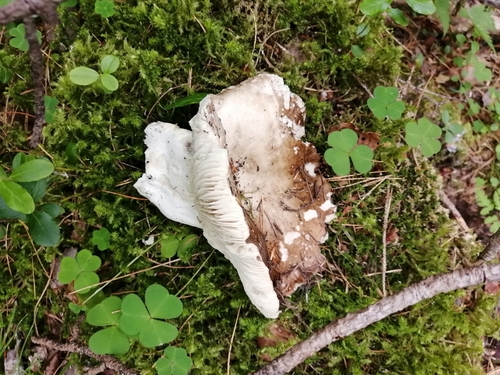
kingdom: Fungi
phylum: Basidiomycota
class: Agaricomycetes
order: Russulales
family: Russulaceae
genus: Russula
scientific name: Russula adusta
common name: Winecork brittlegill
